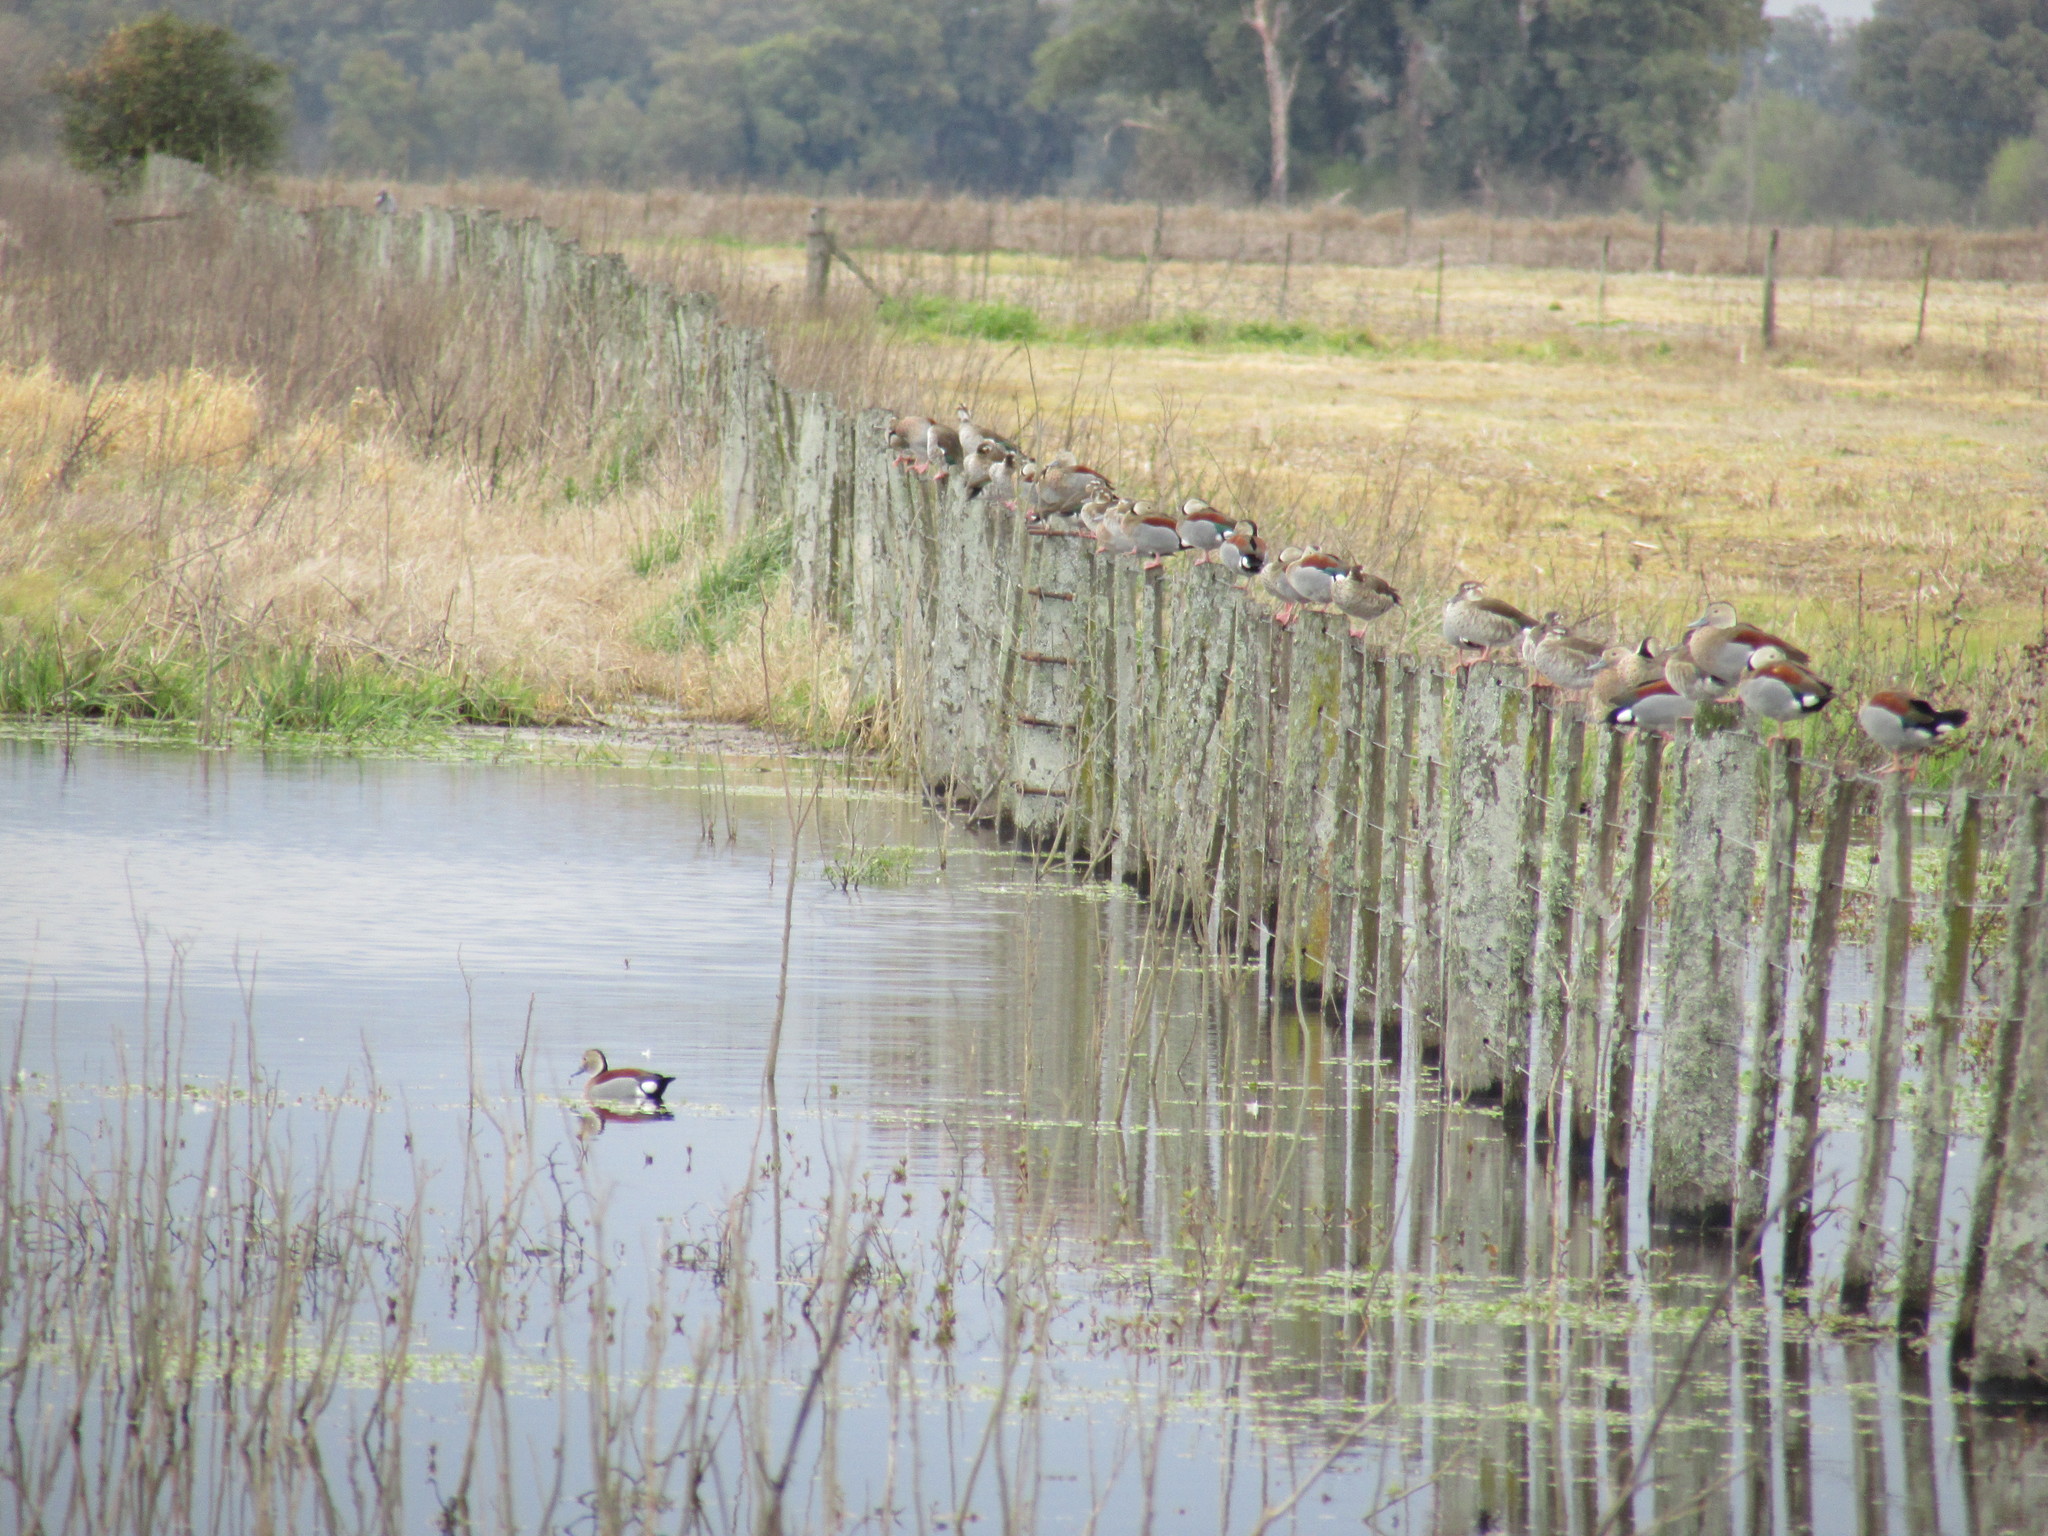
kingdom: Animalia
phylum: Chordata
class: Aves
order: Anseriformes
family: Anatidae
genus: Callonetta
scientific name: Callonetta leucophrys
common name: Ringed teal
